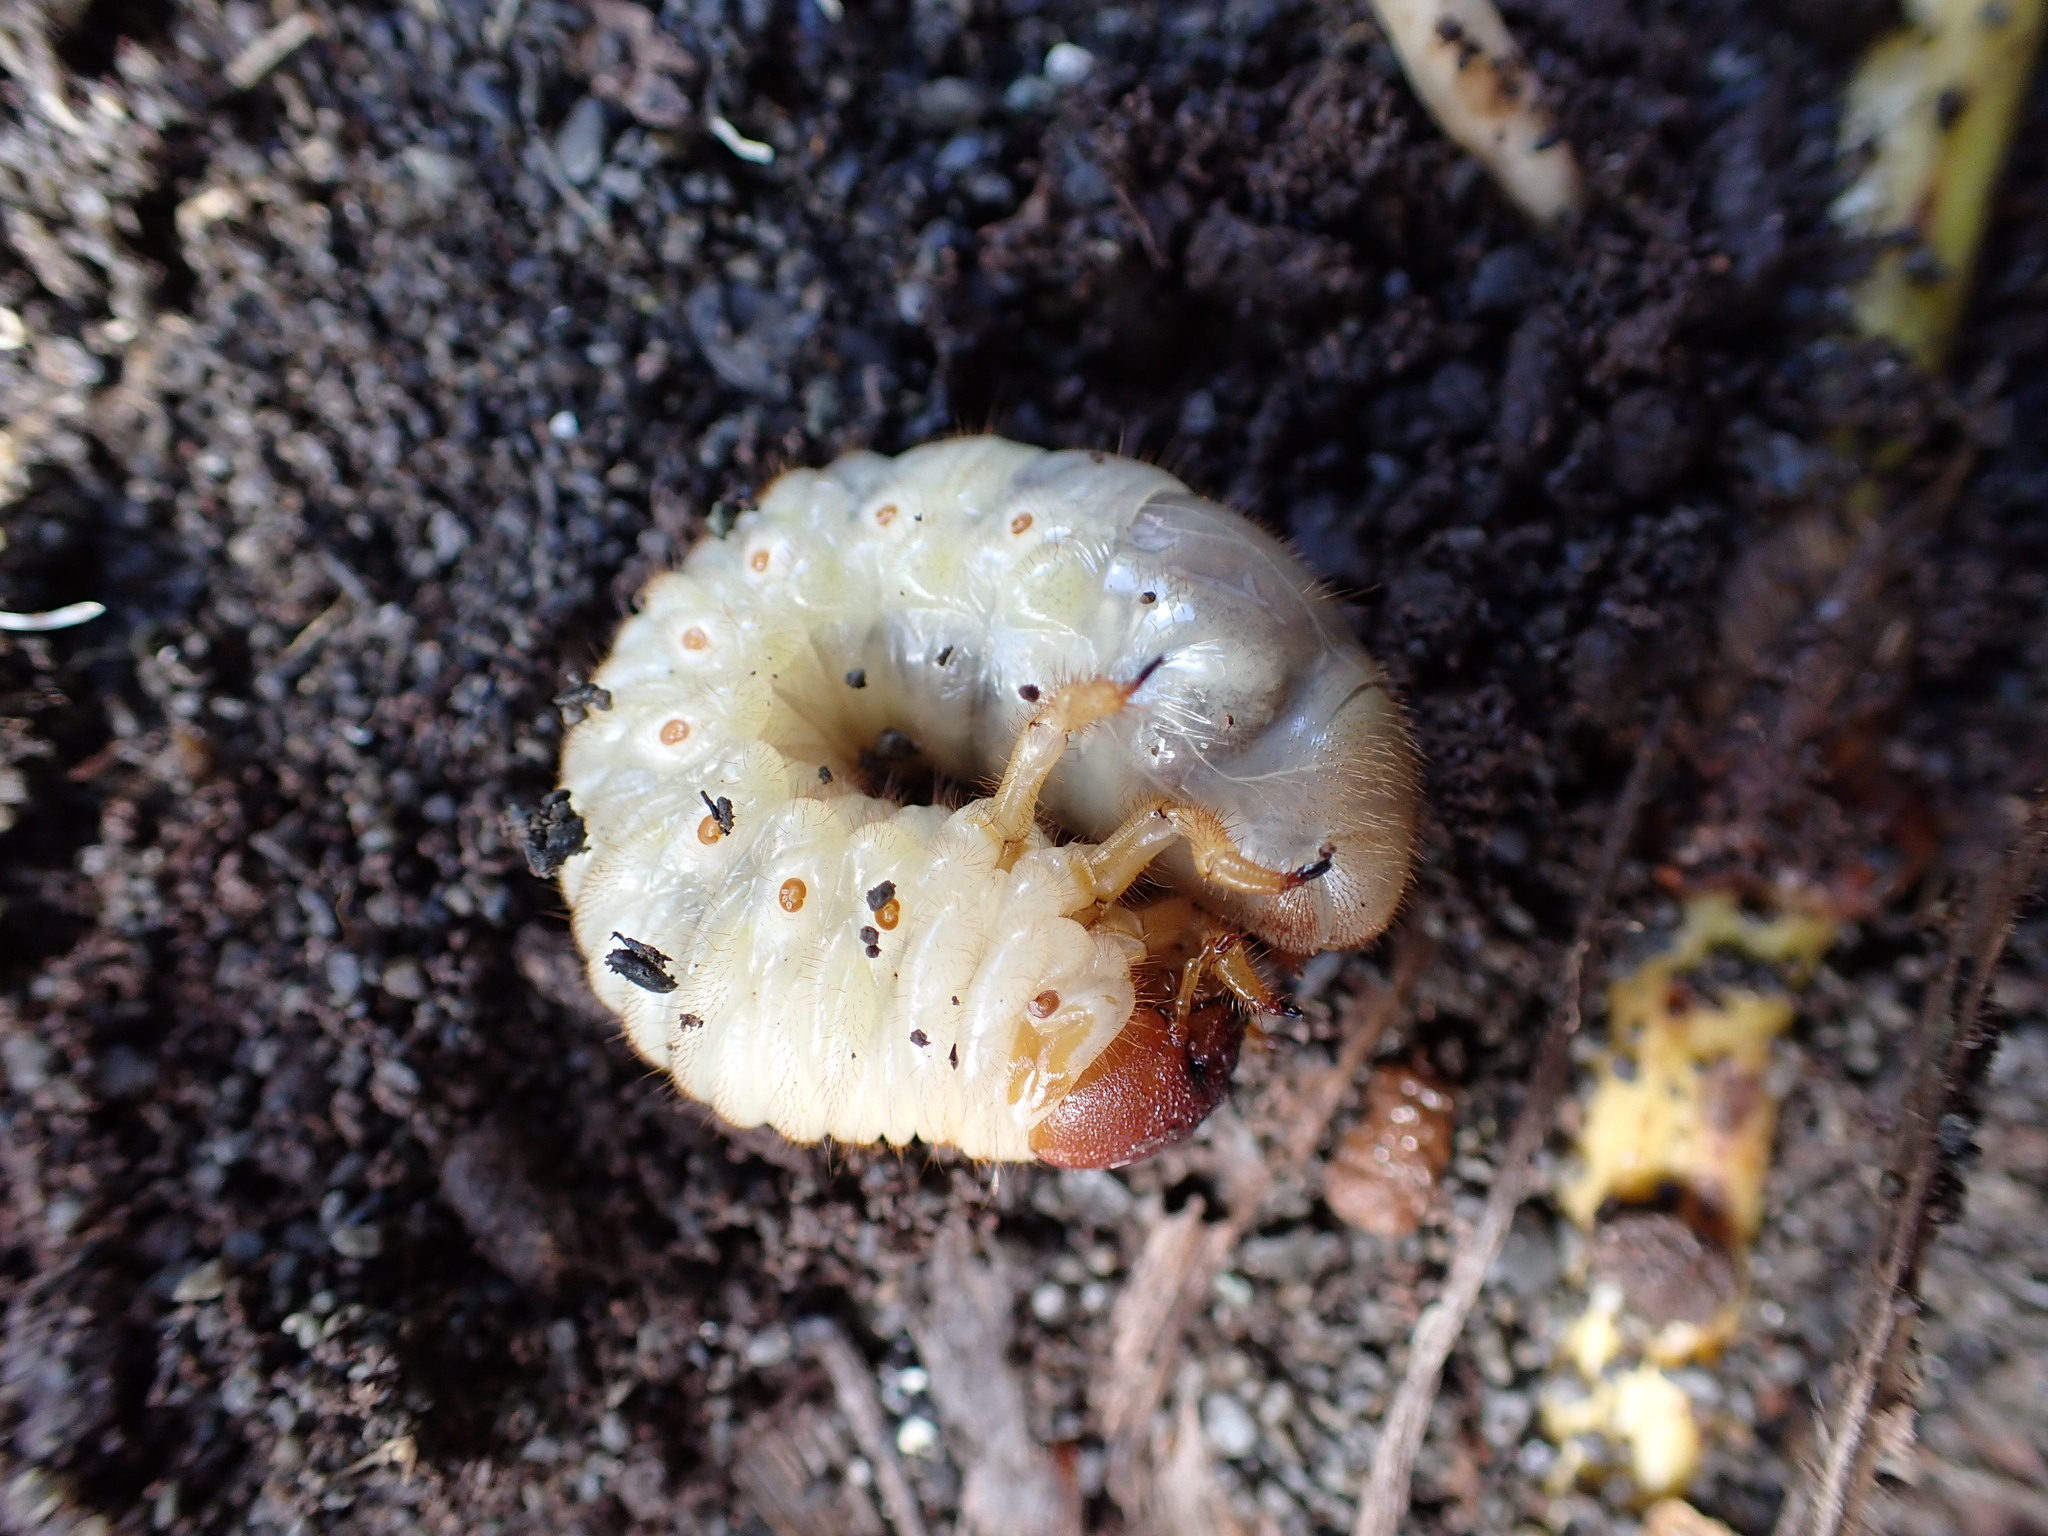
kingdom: Animalia
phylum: Arthropoda
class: Insecta
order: Coleoptera
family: Scarabaeidae
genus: Pericoptus
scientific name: Pericoptus truncatus
